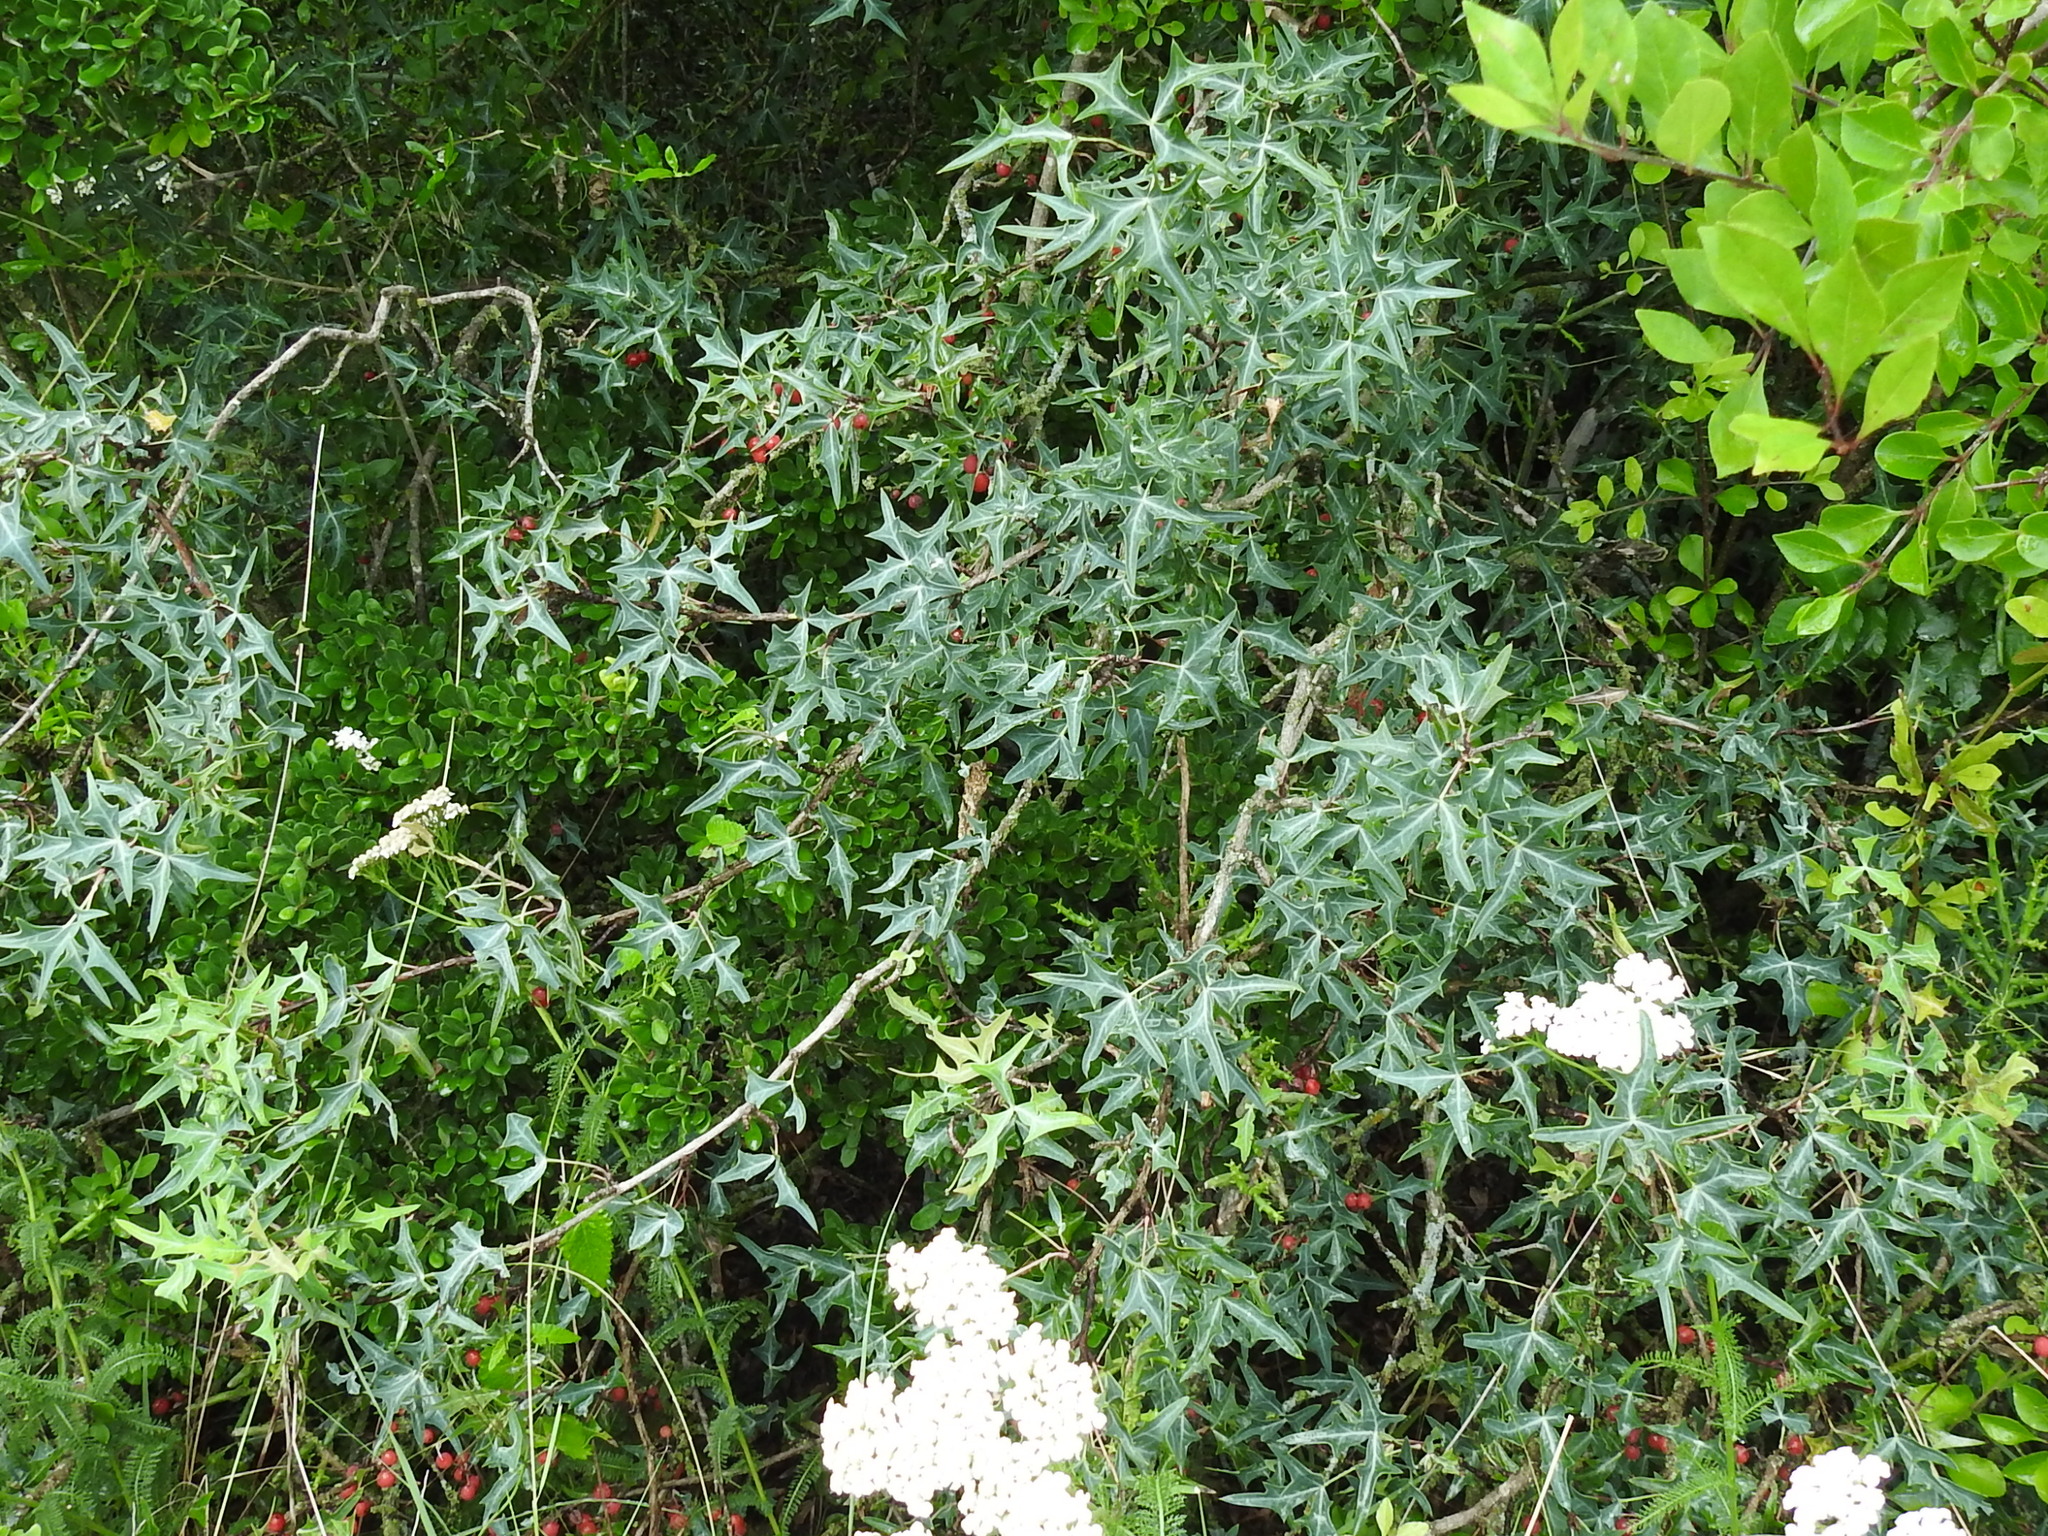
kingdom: Plantae
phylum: Tracheophyta
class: Magnoliopsida
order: Ranunculales
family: Berberidaceae
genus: Alloberberis
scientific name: Alloberberis trifoliolata
